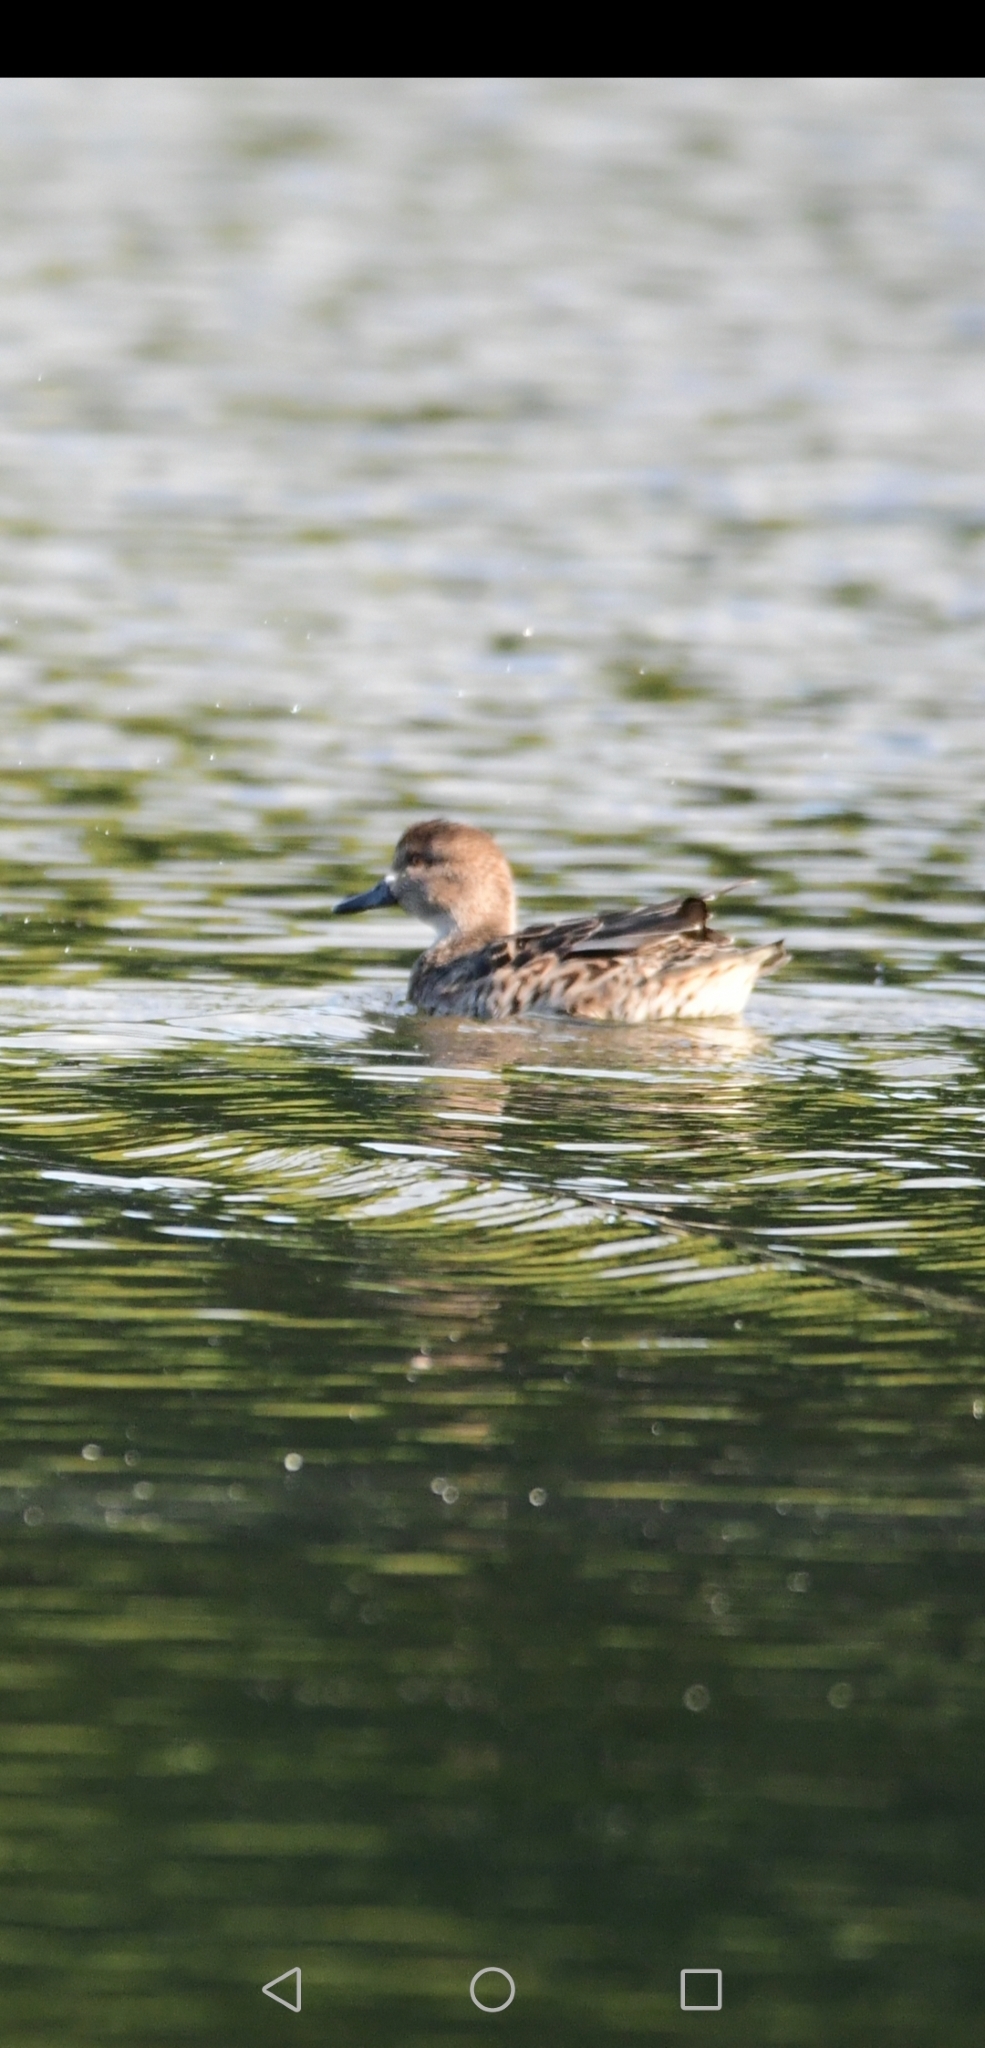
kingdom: Animalia
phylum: Chordata
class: Aves
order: Anseriformes
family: Anatidae
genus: Anas
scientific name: Anas crecca
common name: Eurasian teal
